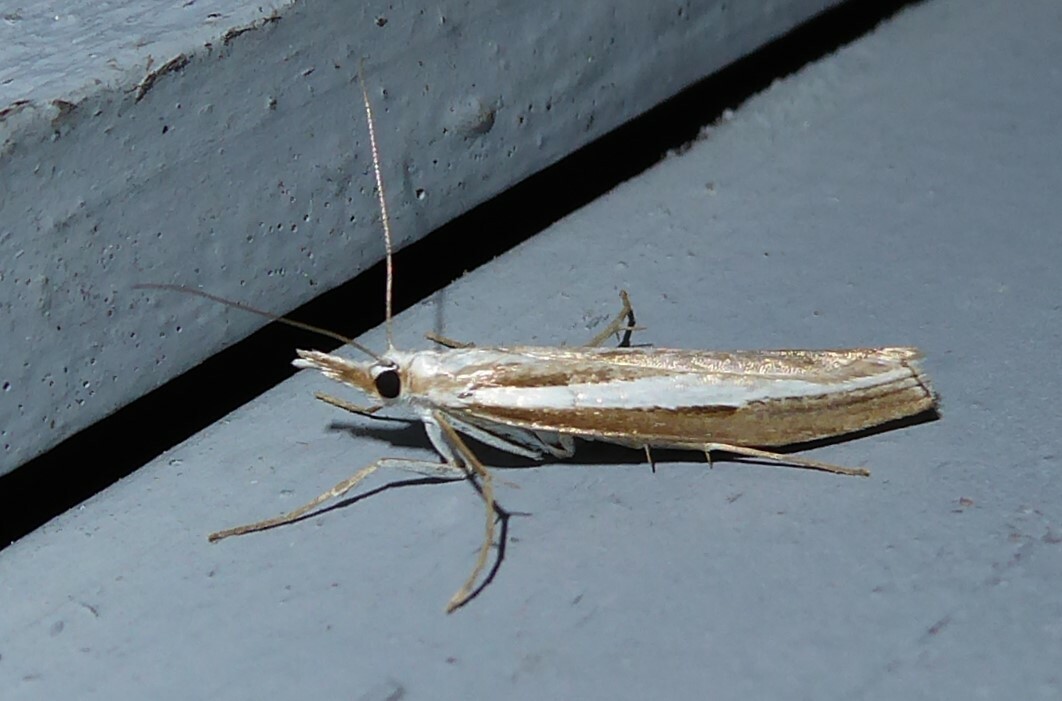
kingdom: Animalia
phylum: Arthropoda
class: Insecta
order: Lepidoptera
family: Crambidae
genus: Orocrambus
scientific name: Orocrambus vittellus
